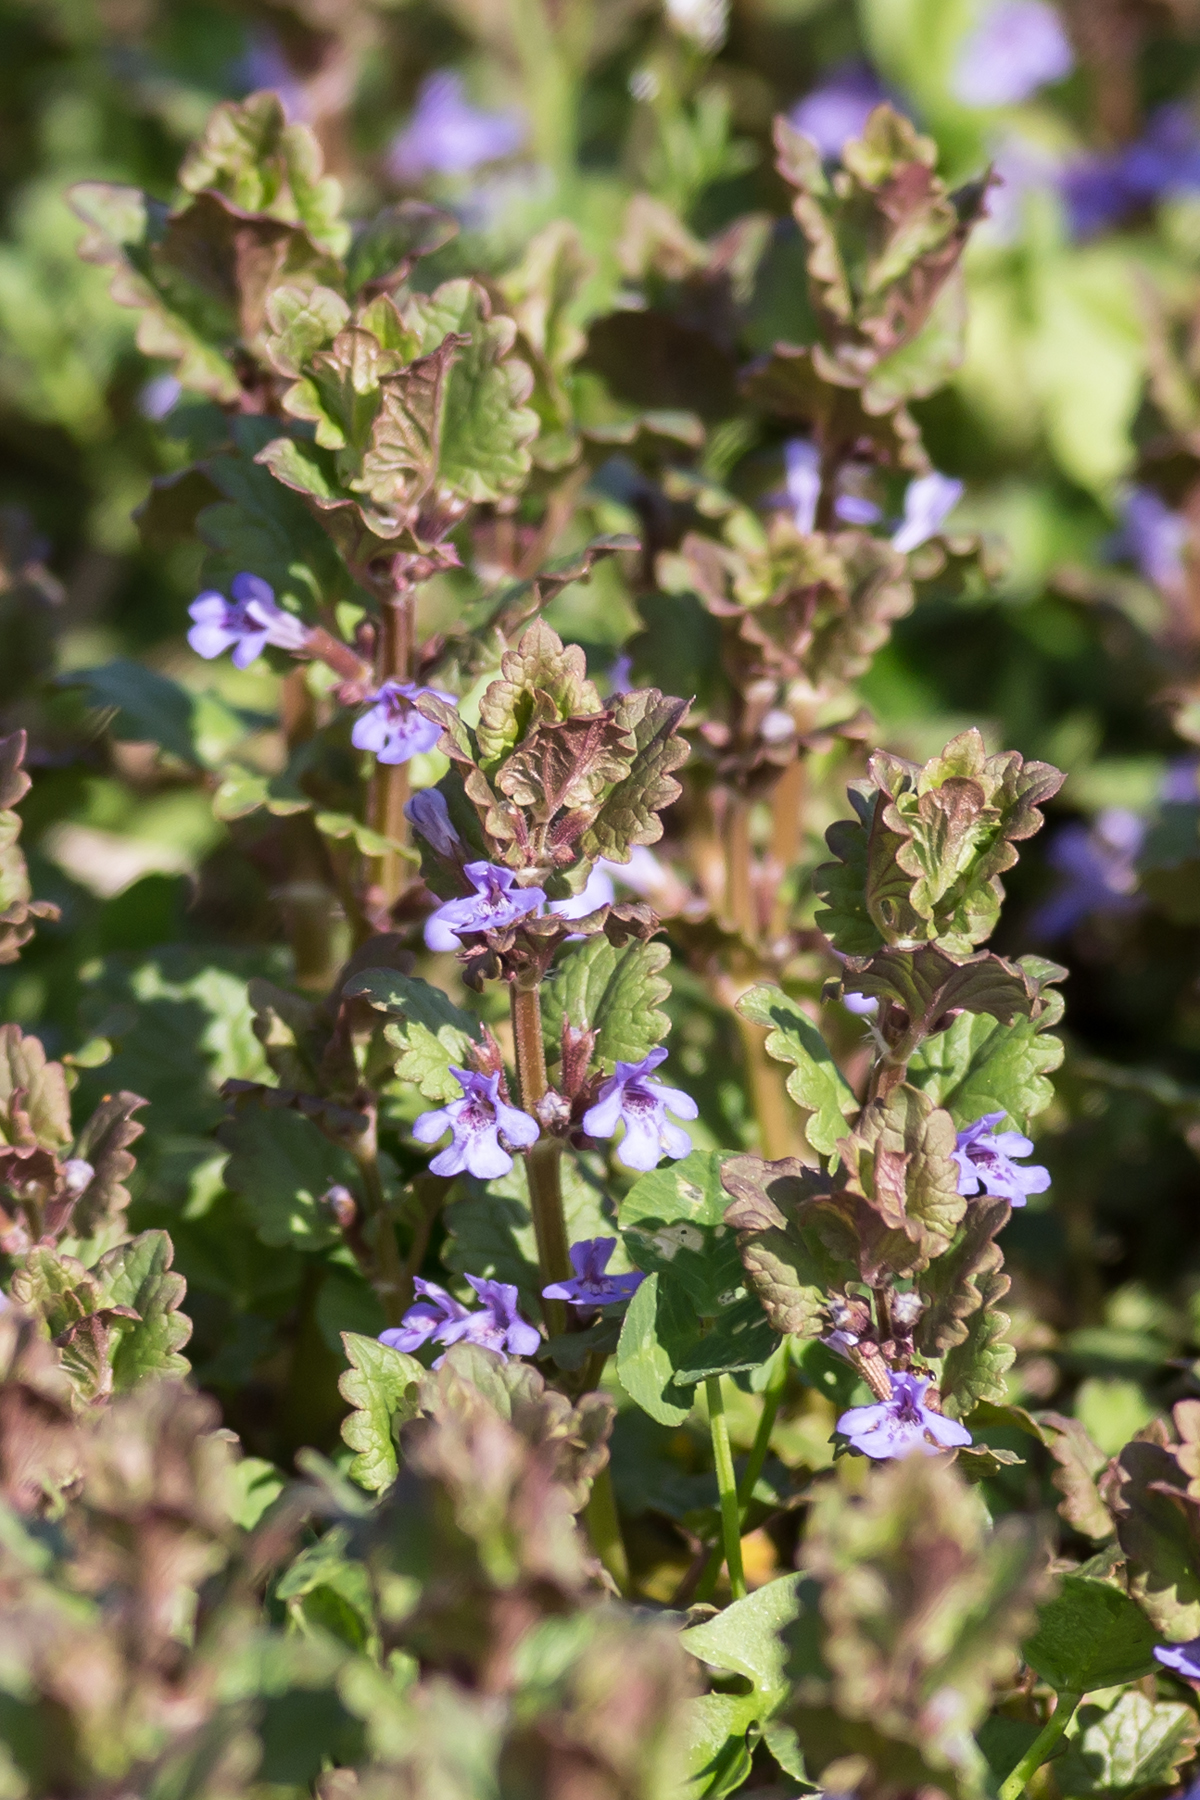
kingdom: Plantae
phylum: Tracheophyta
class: Magnoliopsida
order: Lamiales
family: Lamiaceae
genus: Glechoma
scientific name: Glechoma hederacea
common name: Ground ivy
